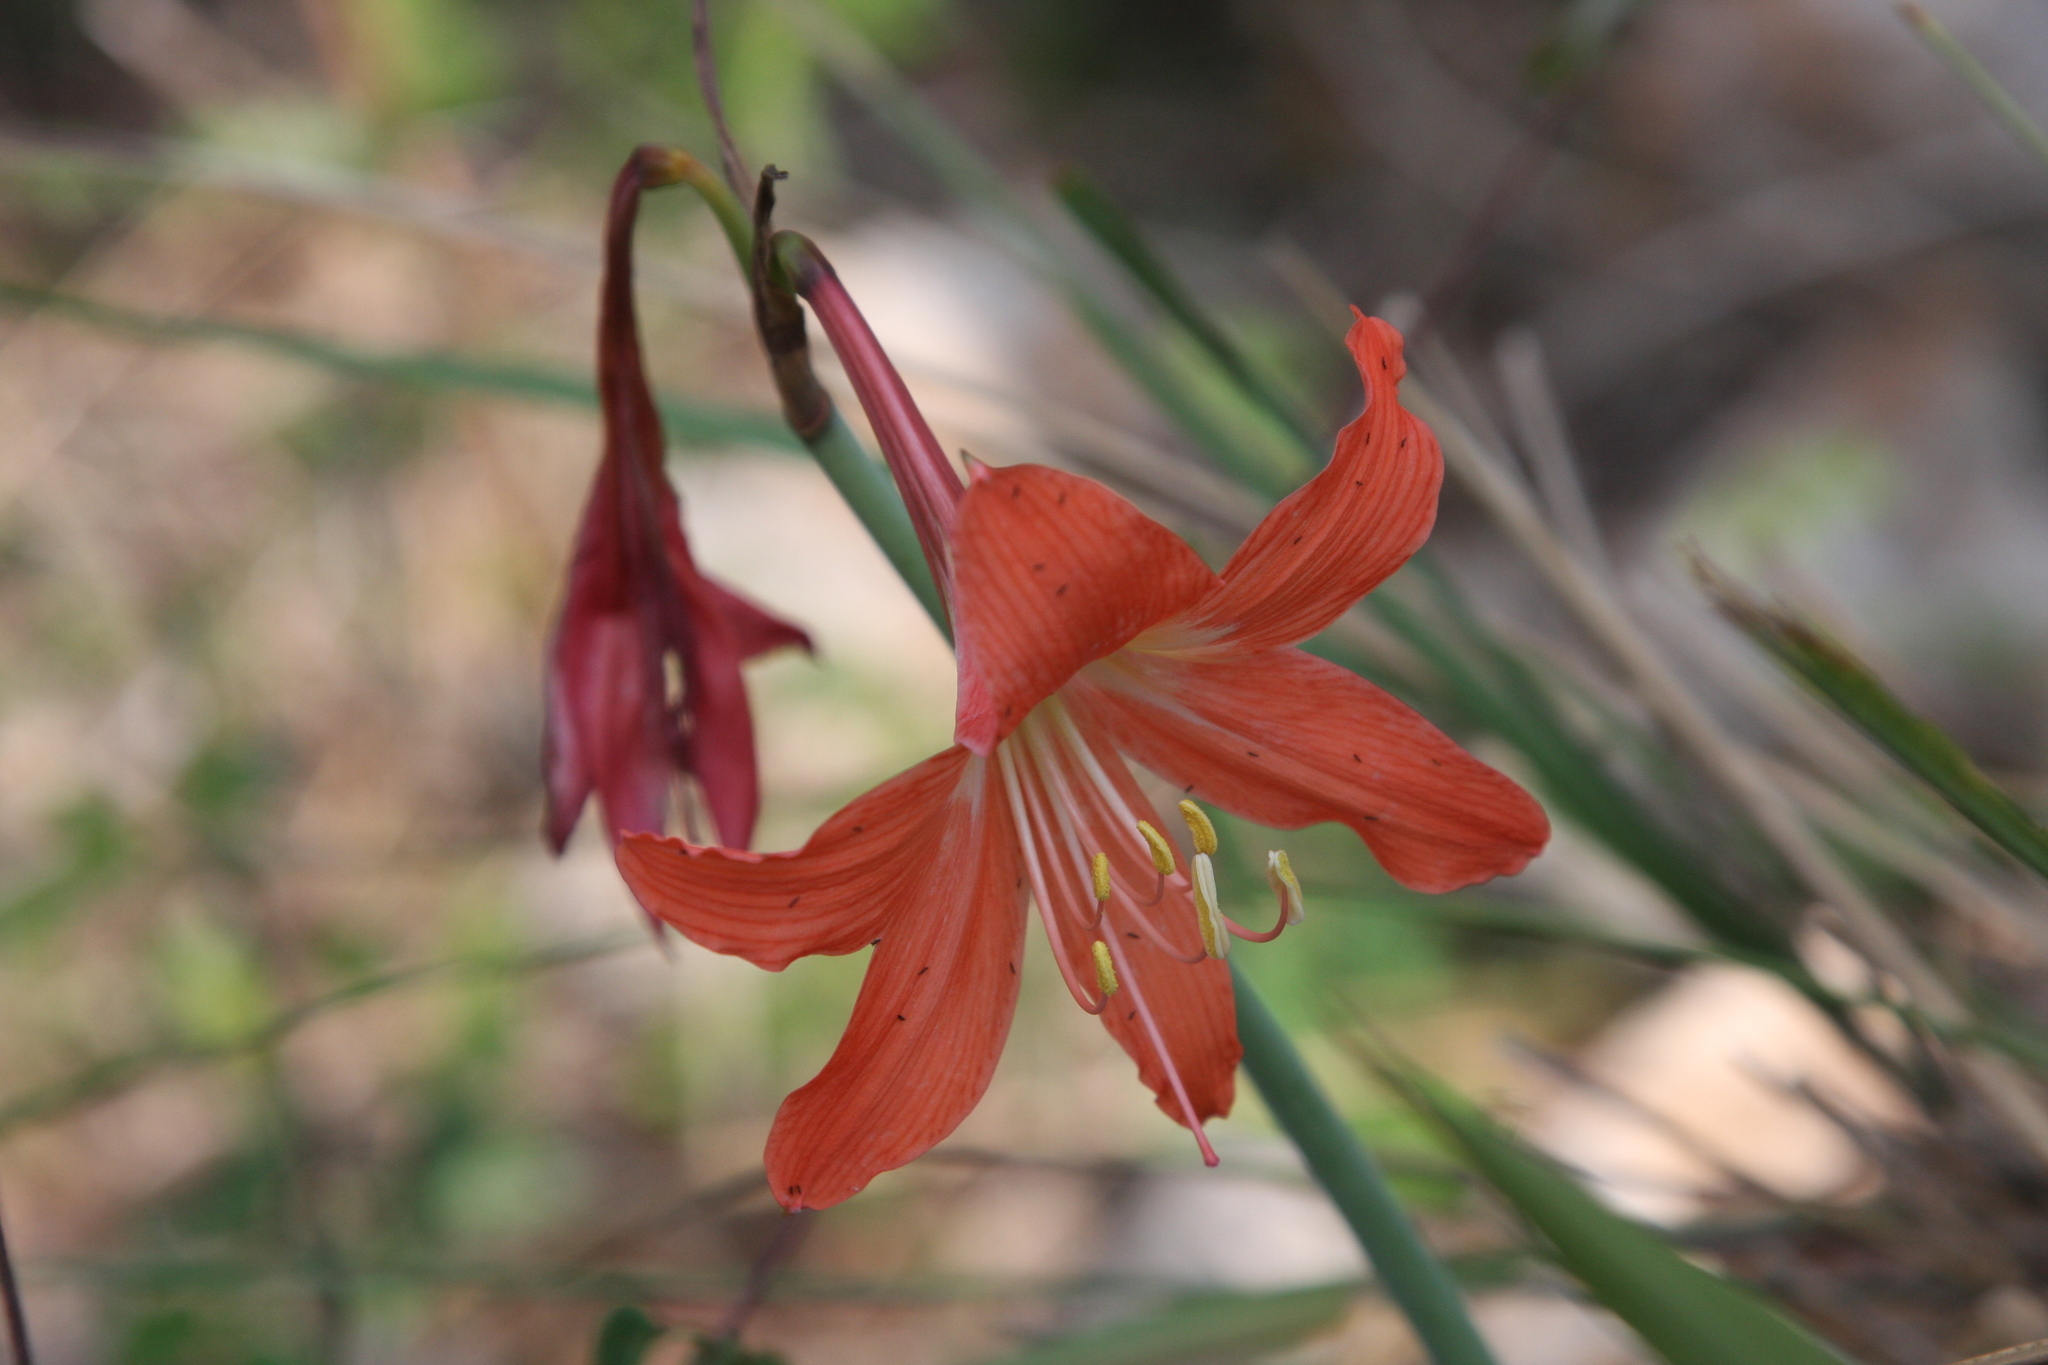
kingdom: Plantae
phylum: Tracheophyta
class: Liliopsida
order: Asparagales
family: Amaryllidaceae
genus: Hippeastrum
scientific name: Hippeastrum puniceum
